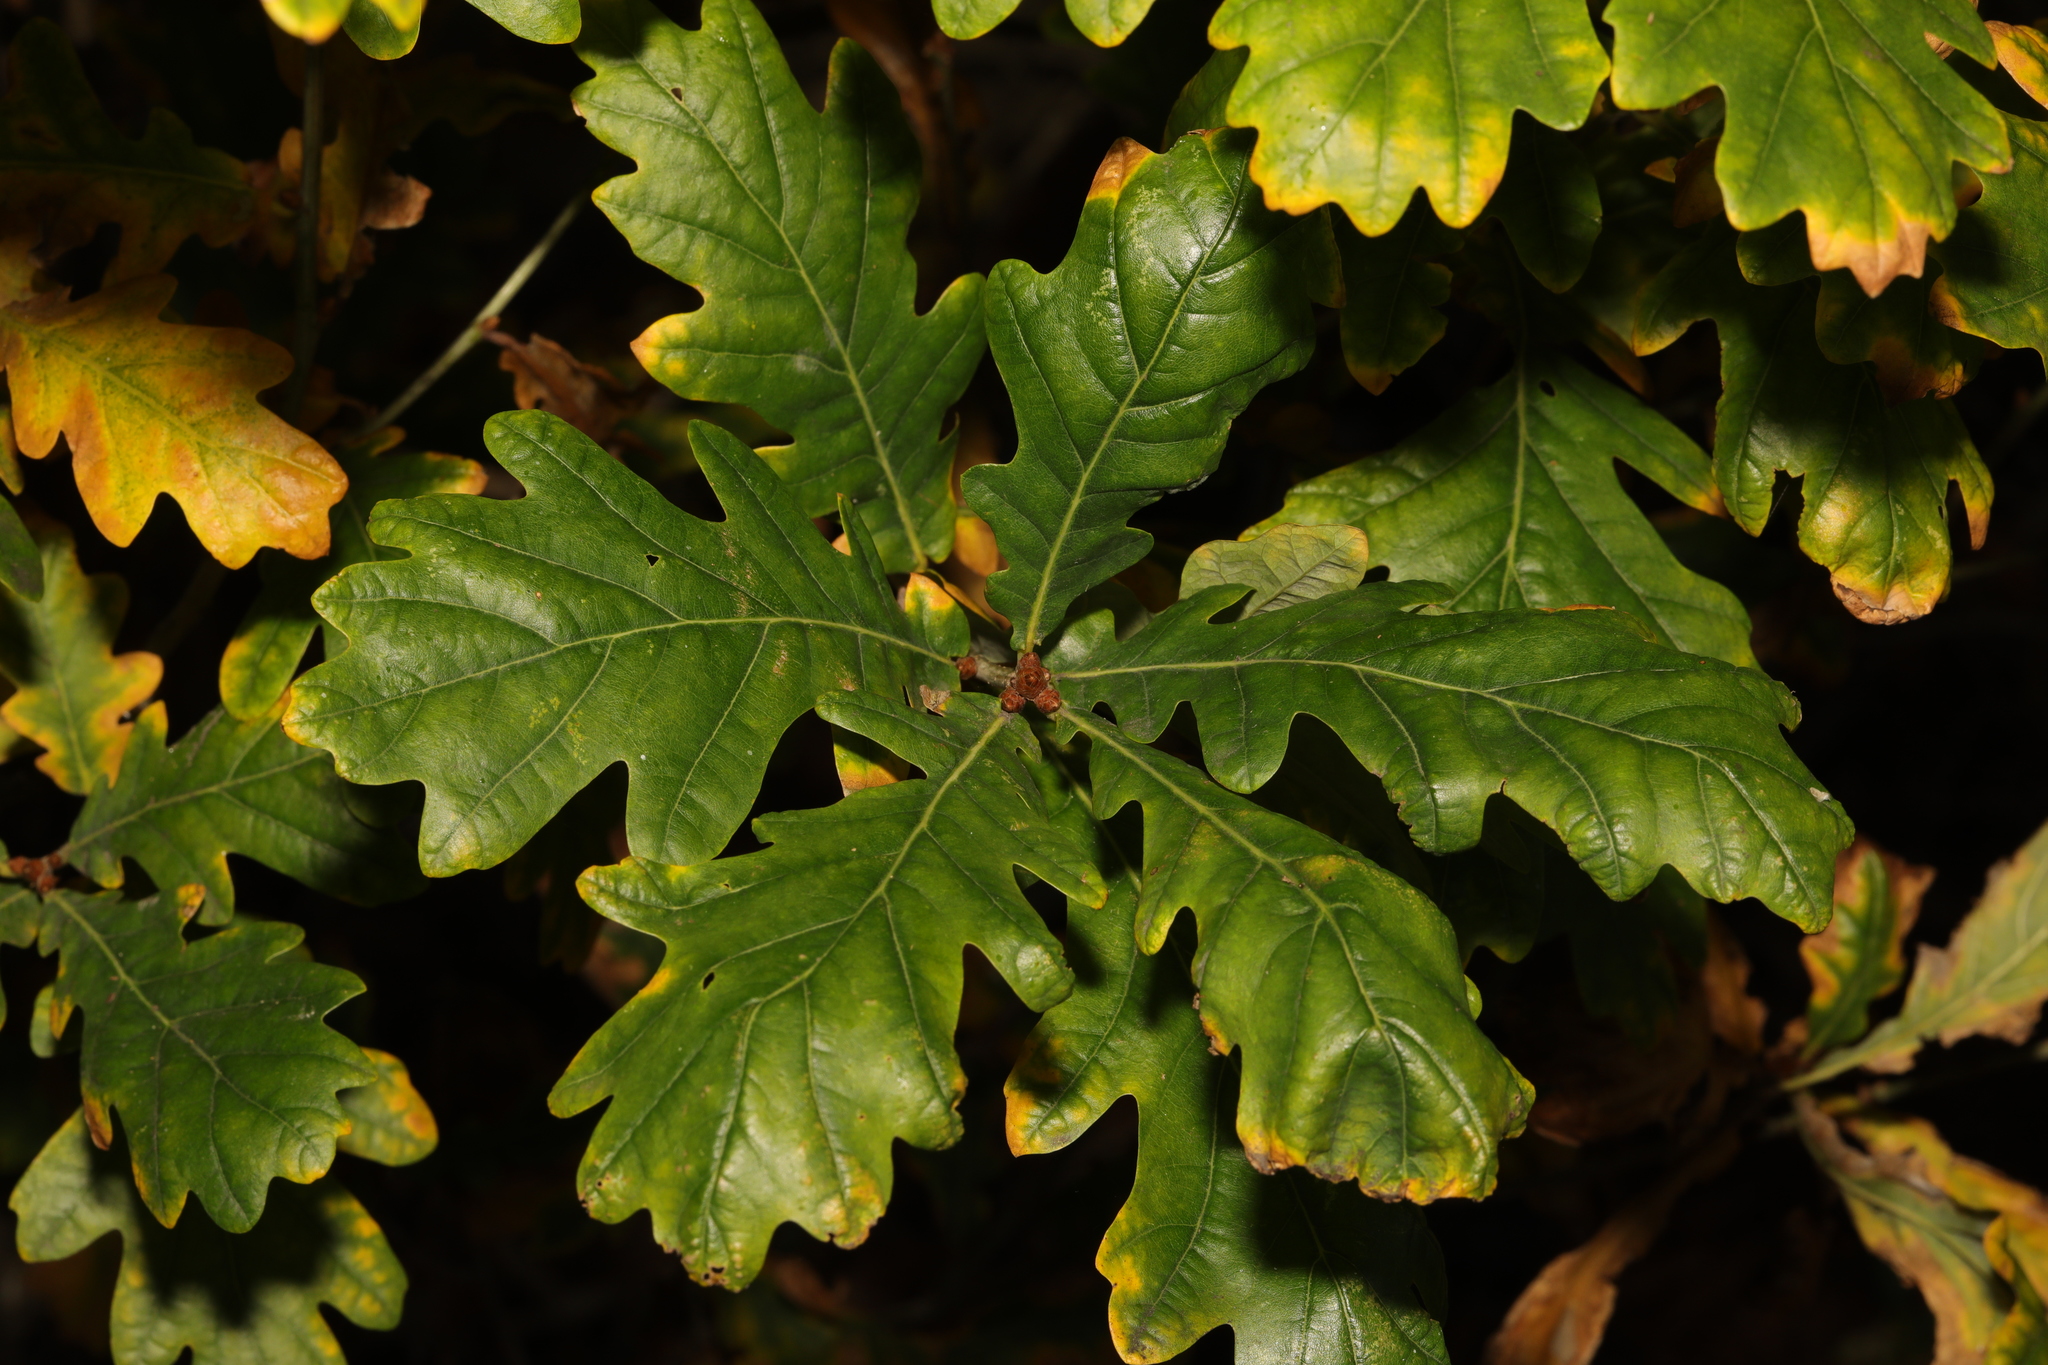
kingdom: Plantae
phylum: Tracheophyta
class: Magnoliopsida
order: Fagales
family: Fagaceae
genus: Quercus
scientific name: Quercus robur
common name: Pedunculate oak
